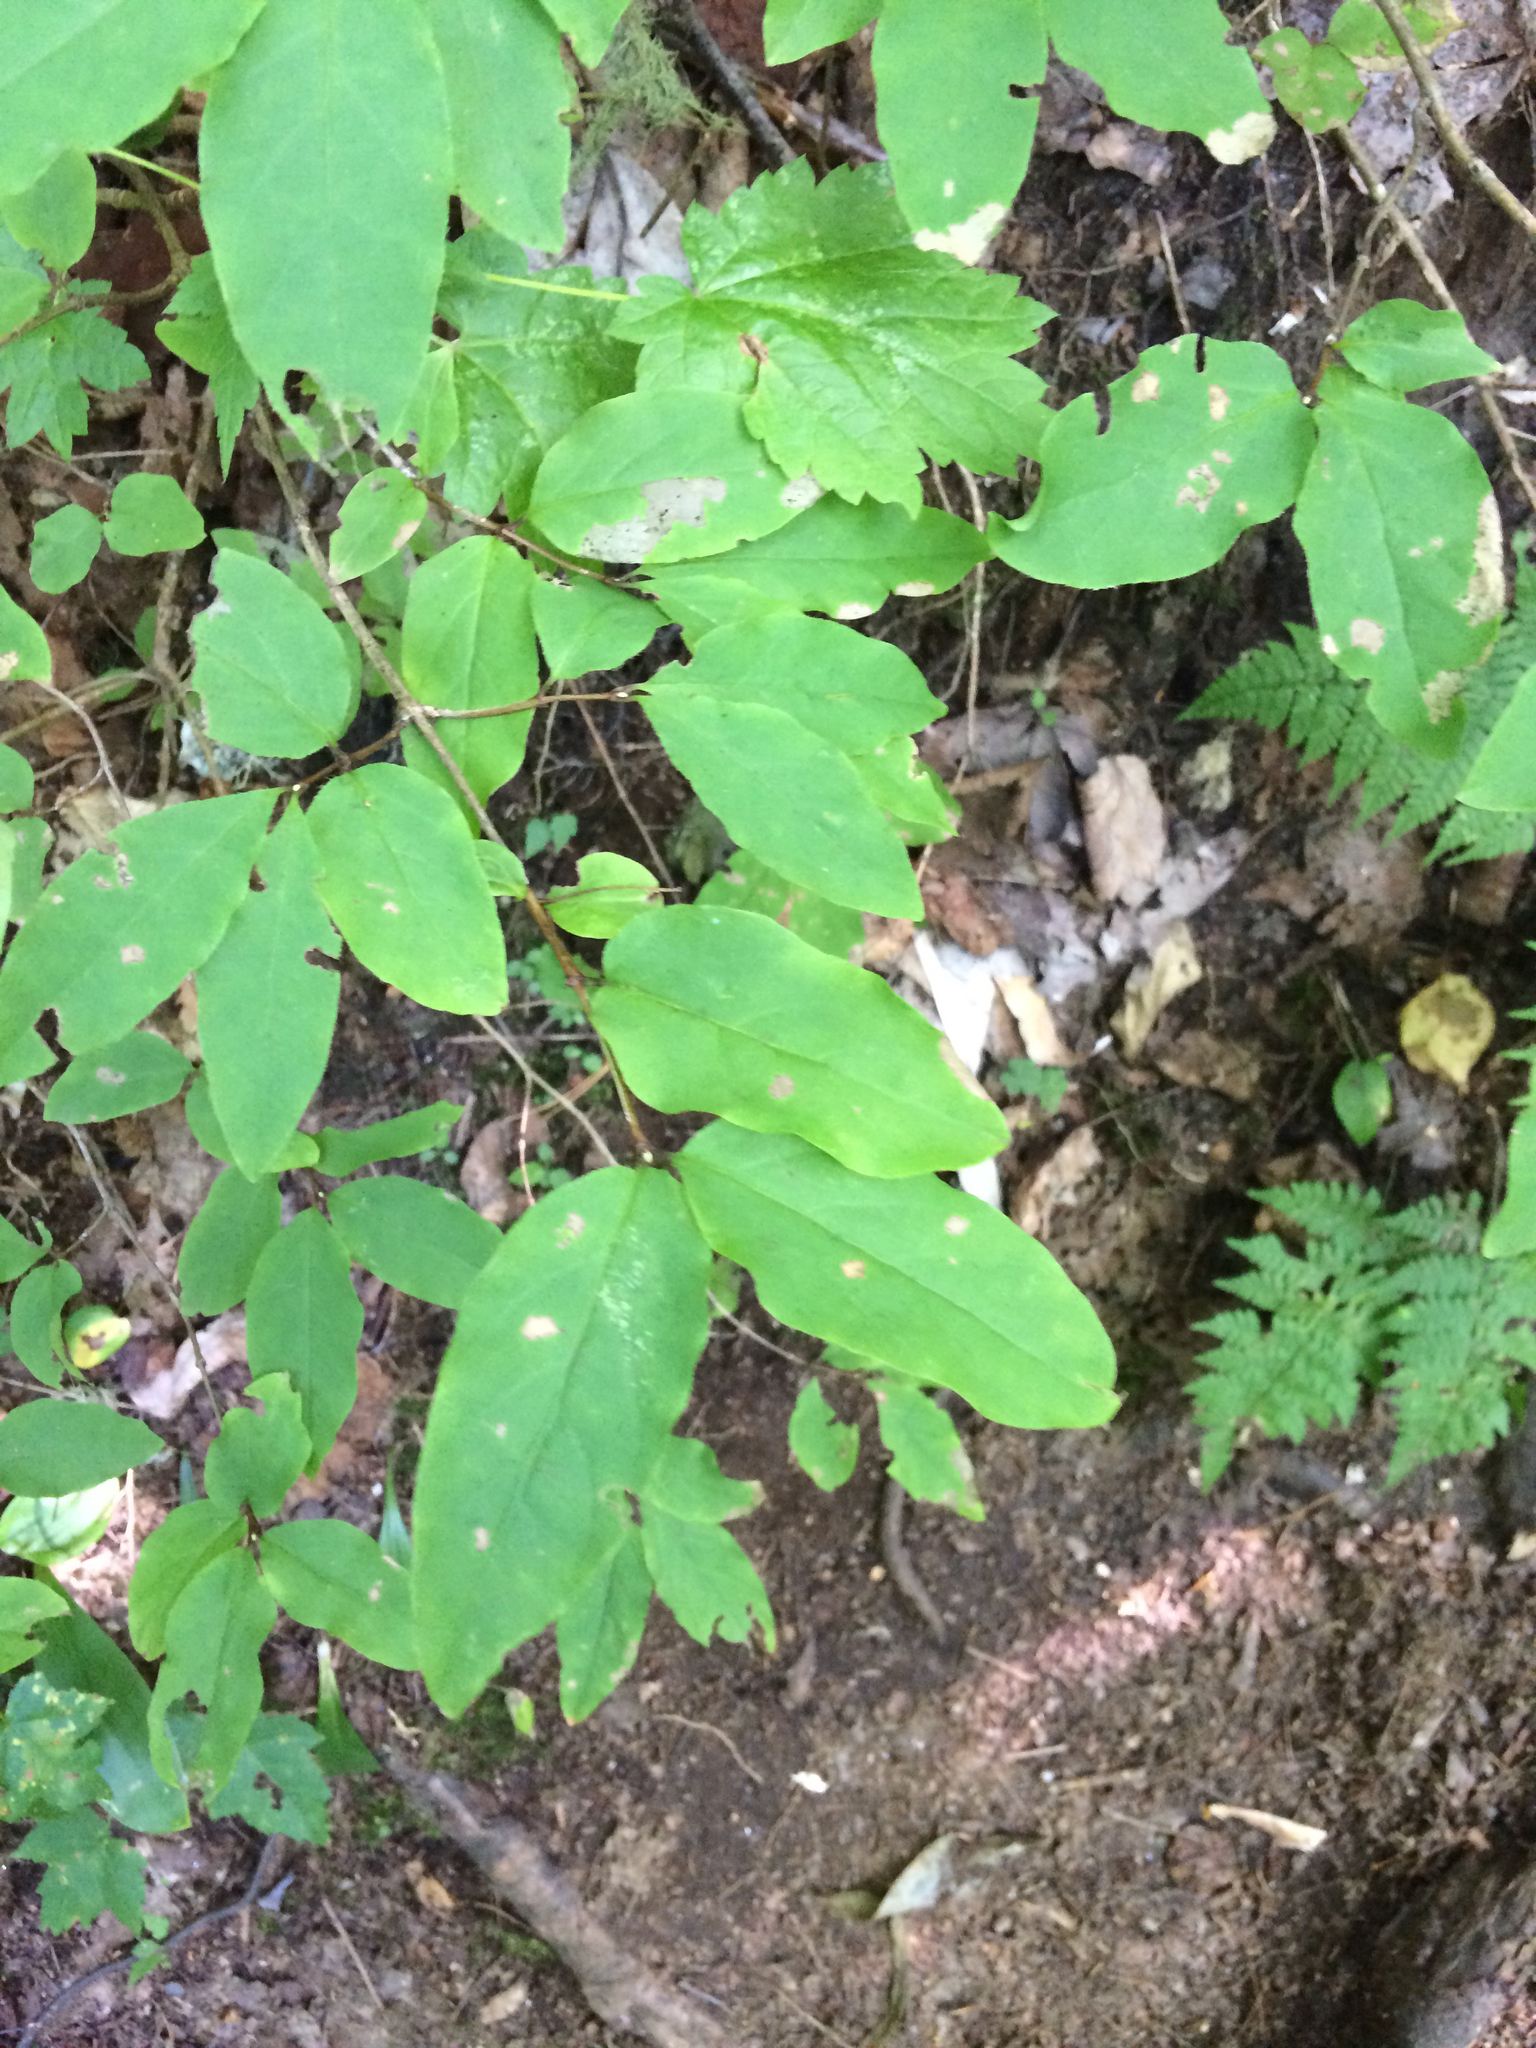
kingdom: Plantae
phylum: Tracheophyta
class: Magnoliopsida
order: Dipsacales
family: Caprifoliaceae
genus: Lonicera
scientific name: Lonicera canadensis
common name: American fly-honeysuckle
